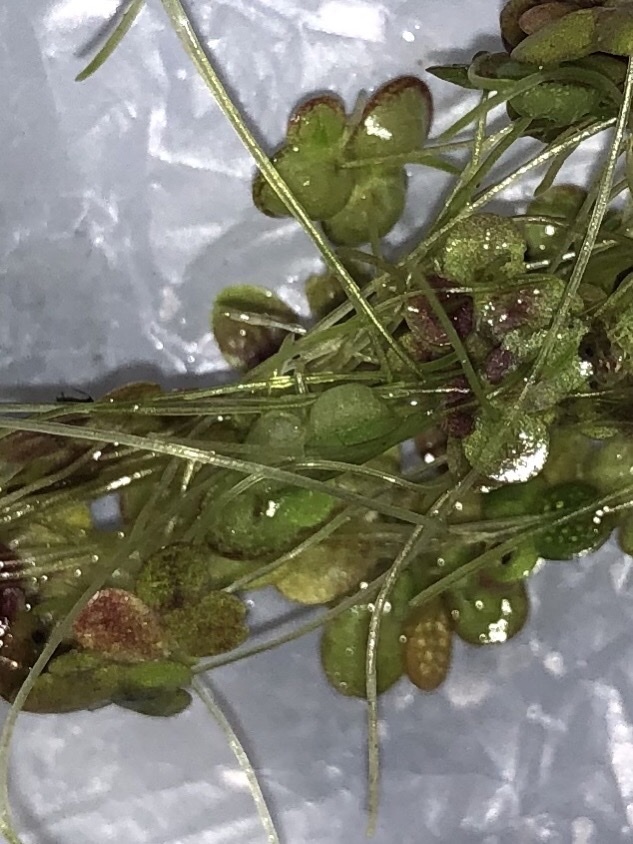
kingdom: Plantae
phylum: Tracheophyta
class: Liliopsida
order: Alismatales
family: Araceae
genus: Lemna
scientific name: Lemna gibba
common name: Fat duckweed
